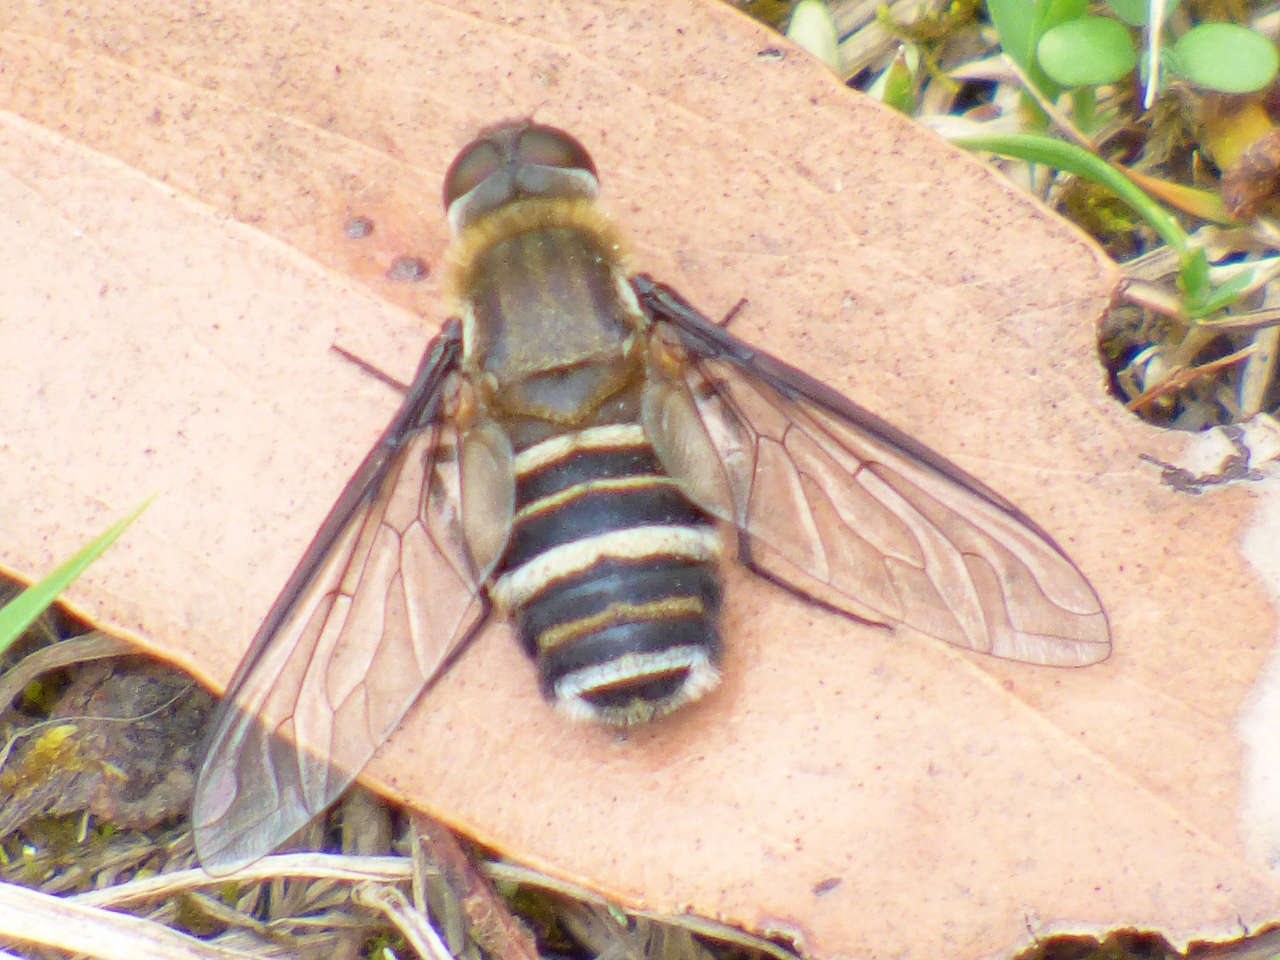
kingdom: Animalia
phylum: Arthropoda
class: Insecta
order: Diptera
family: Bombyliidae
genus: Villa
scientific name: Villa
